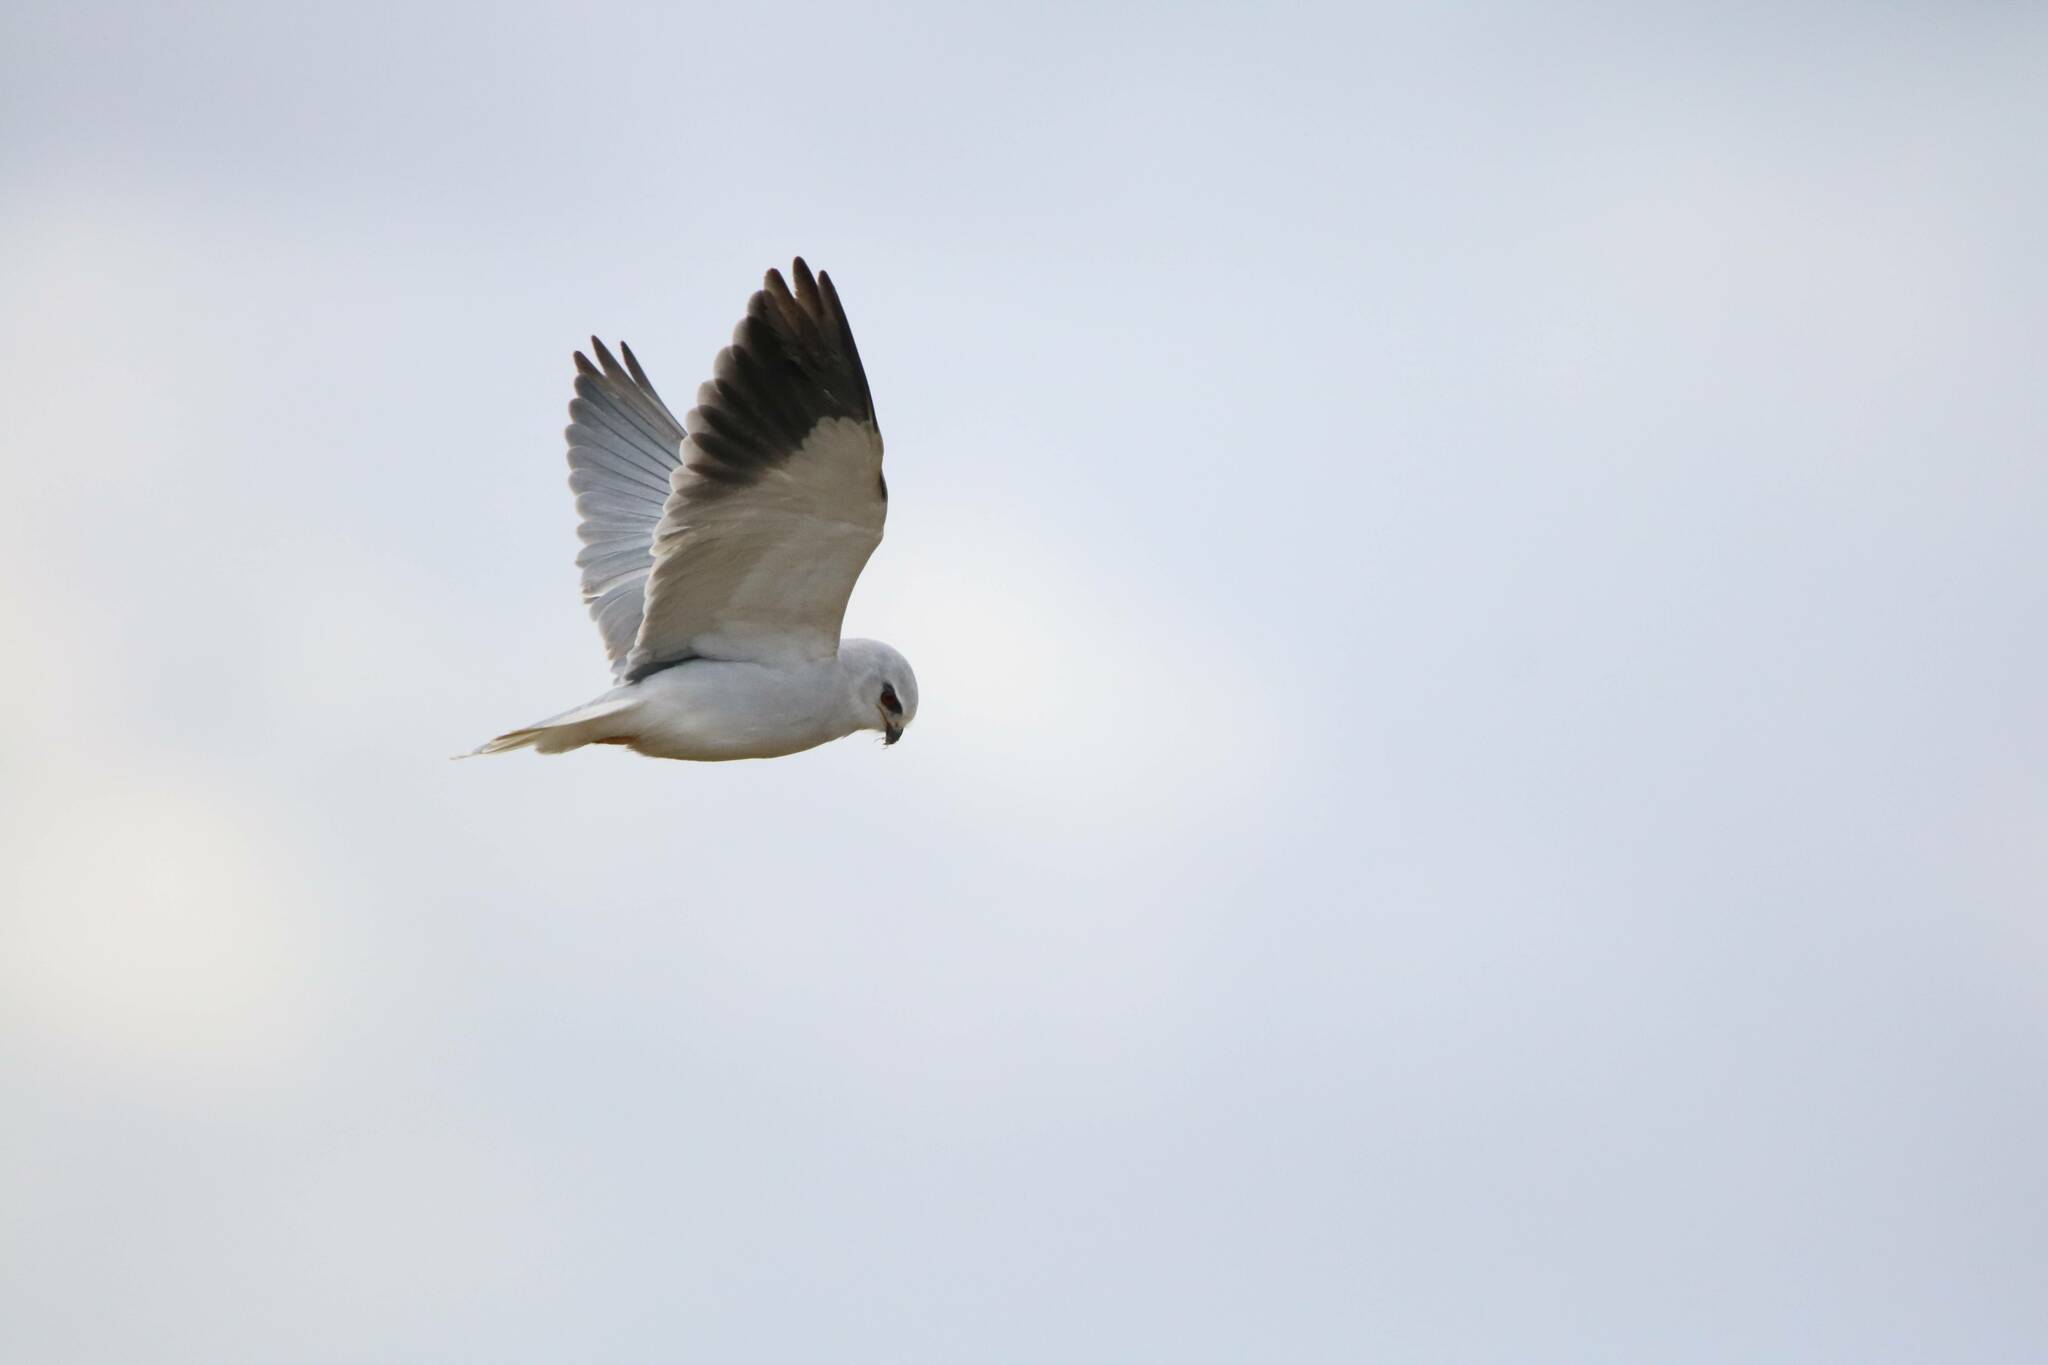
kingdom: Animalia
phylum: Chordata
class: Aves
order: Accipitriformes
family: Accipitridae
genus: Elanus
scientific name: Elanus caeruleus
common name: Black-winged kite
